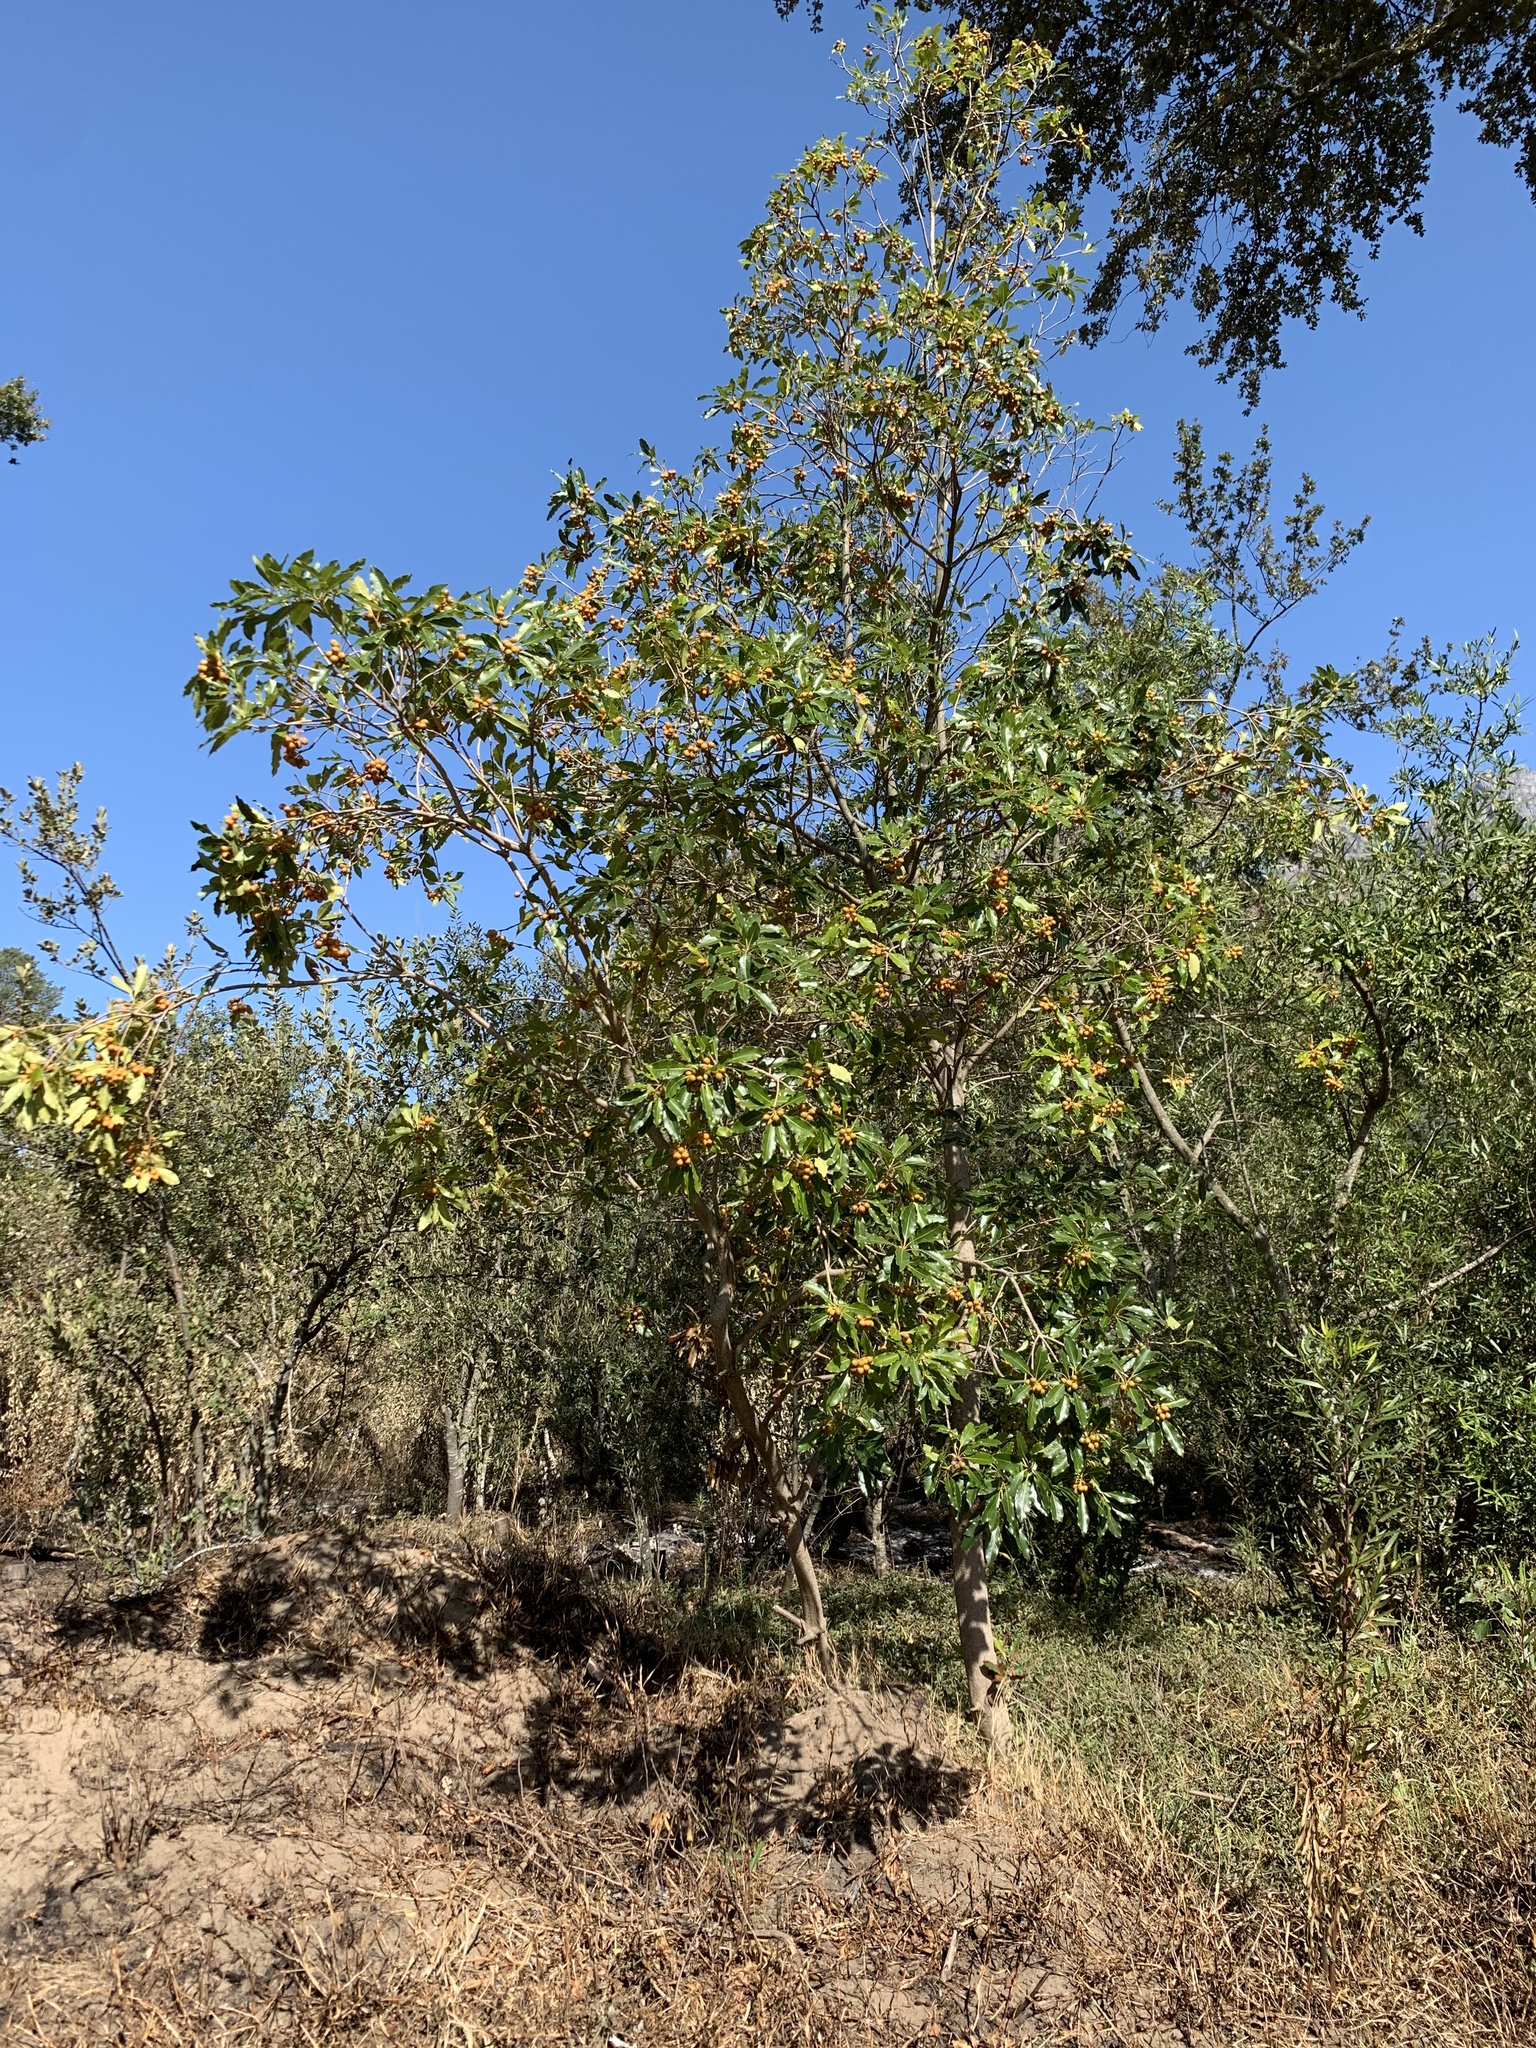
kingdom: Plantae
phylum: Tracheophyta
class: Magnoliopsida
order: Apiales
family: Pittosporaceae
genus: Pittosporum
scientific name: Pittosporum undulatum
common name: Australian cheesewood
